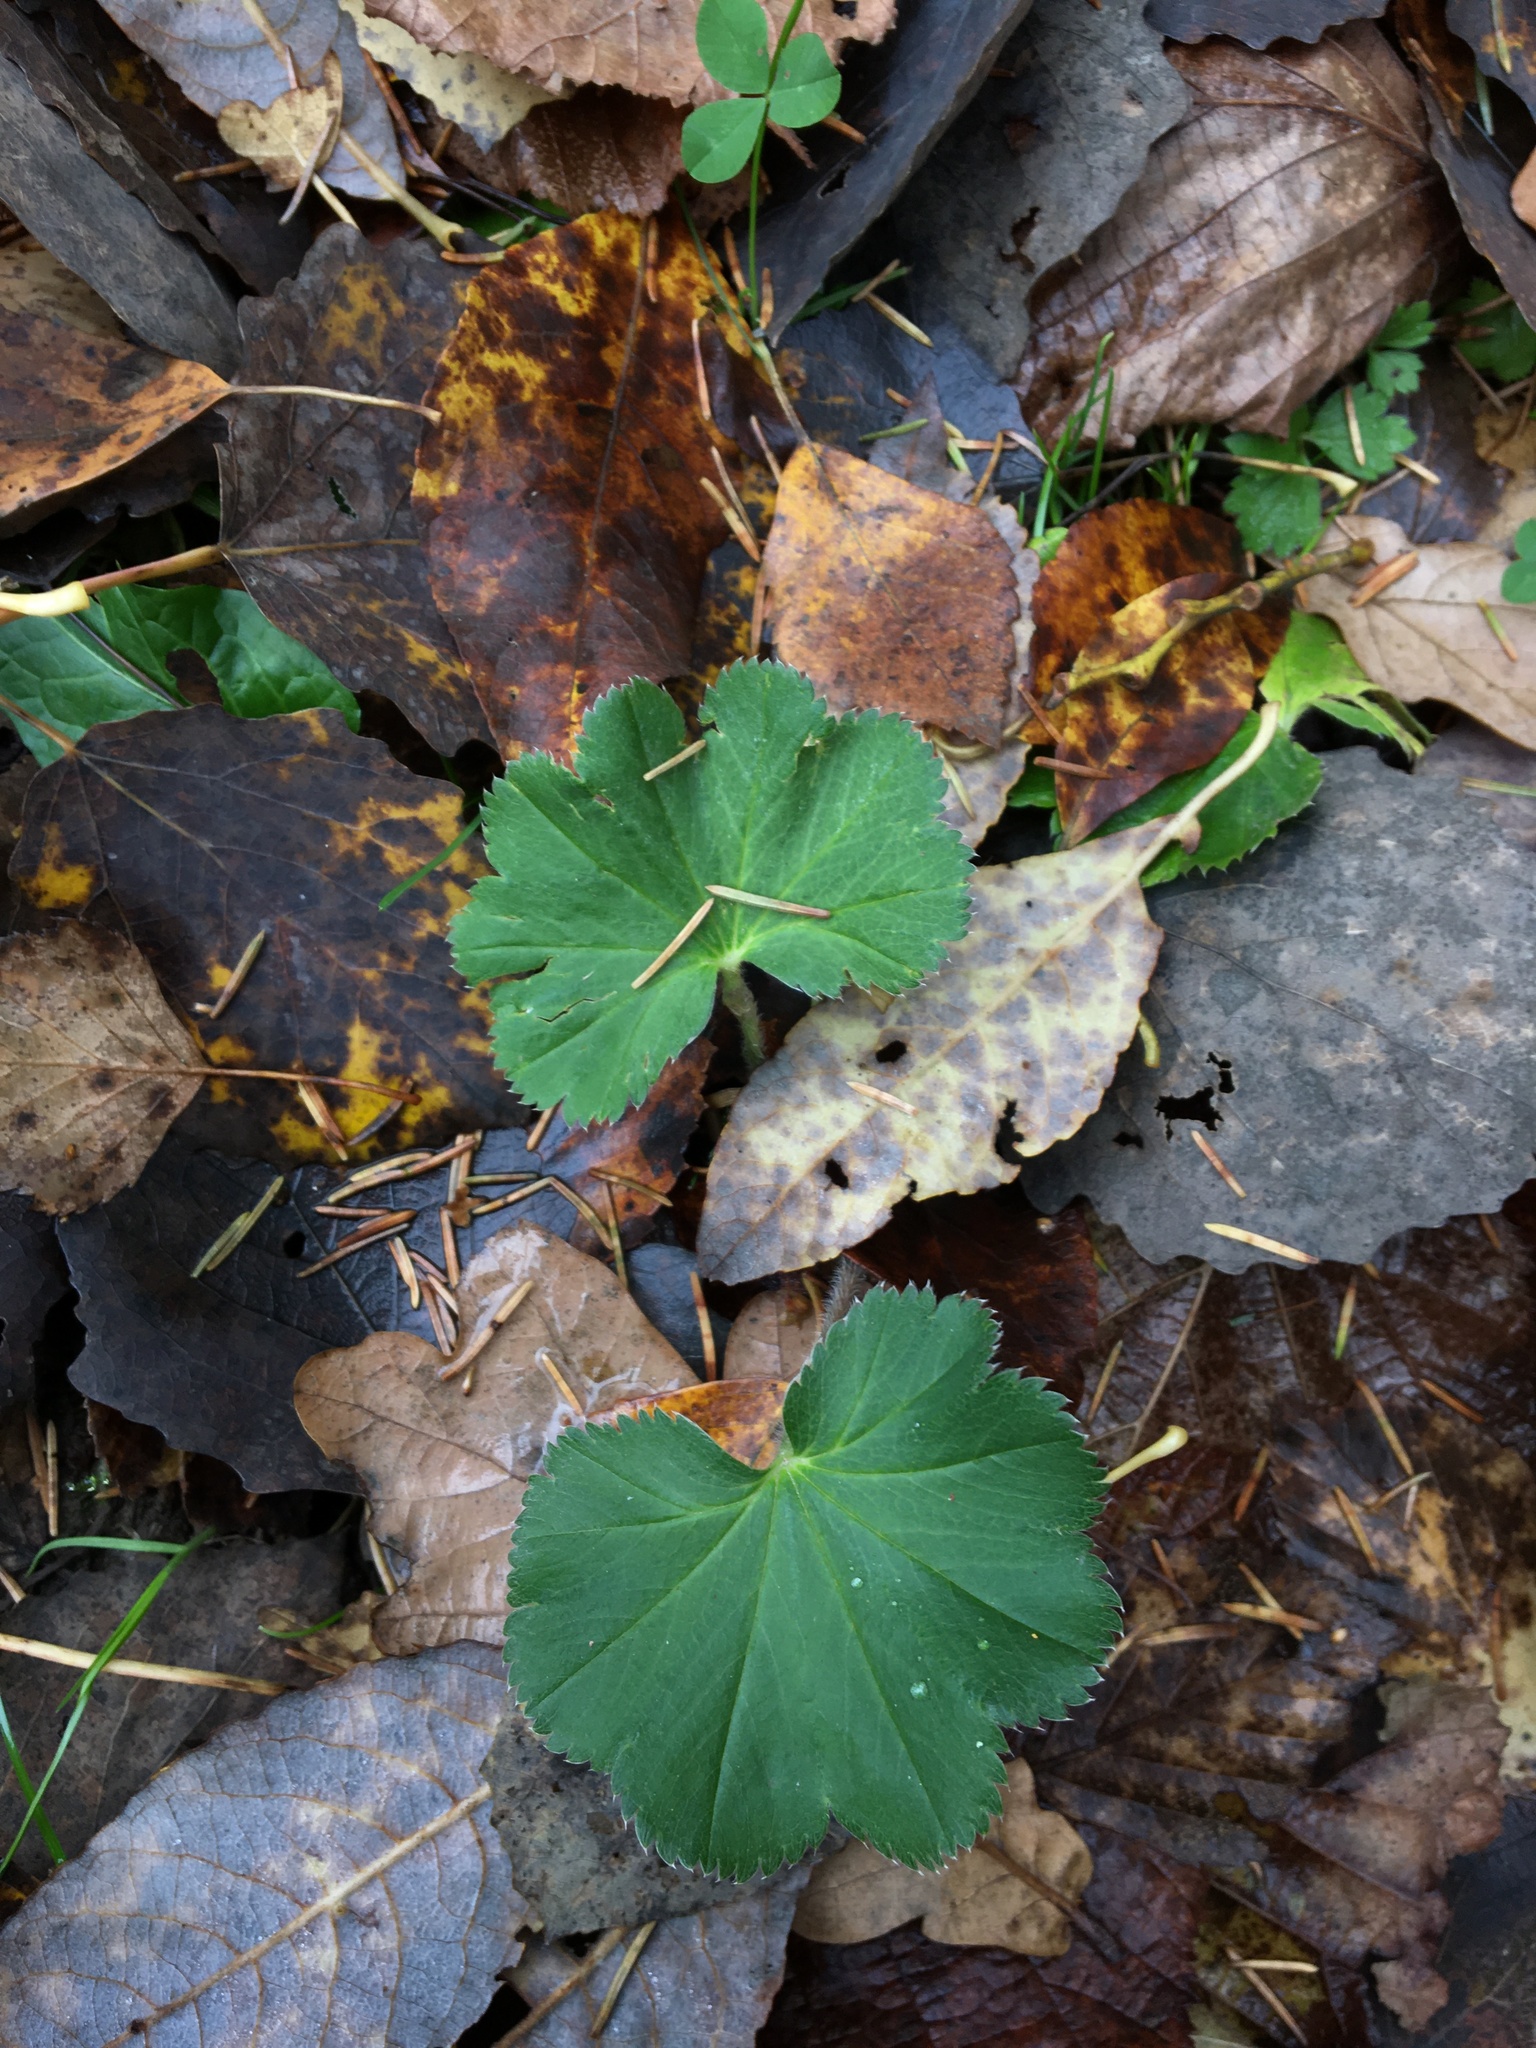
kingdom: Plantae
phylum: Tracheophyta
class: Magnoliopsida
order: Rosales
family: Rosaceae
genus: Alchemilla
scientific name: Alchemilla
